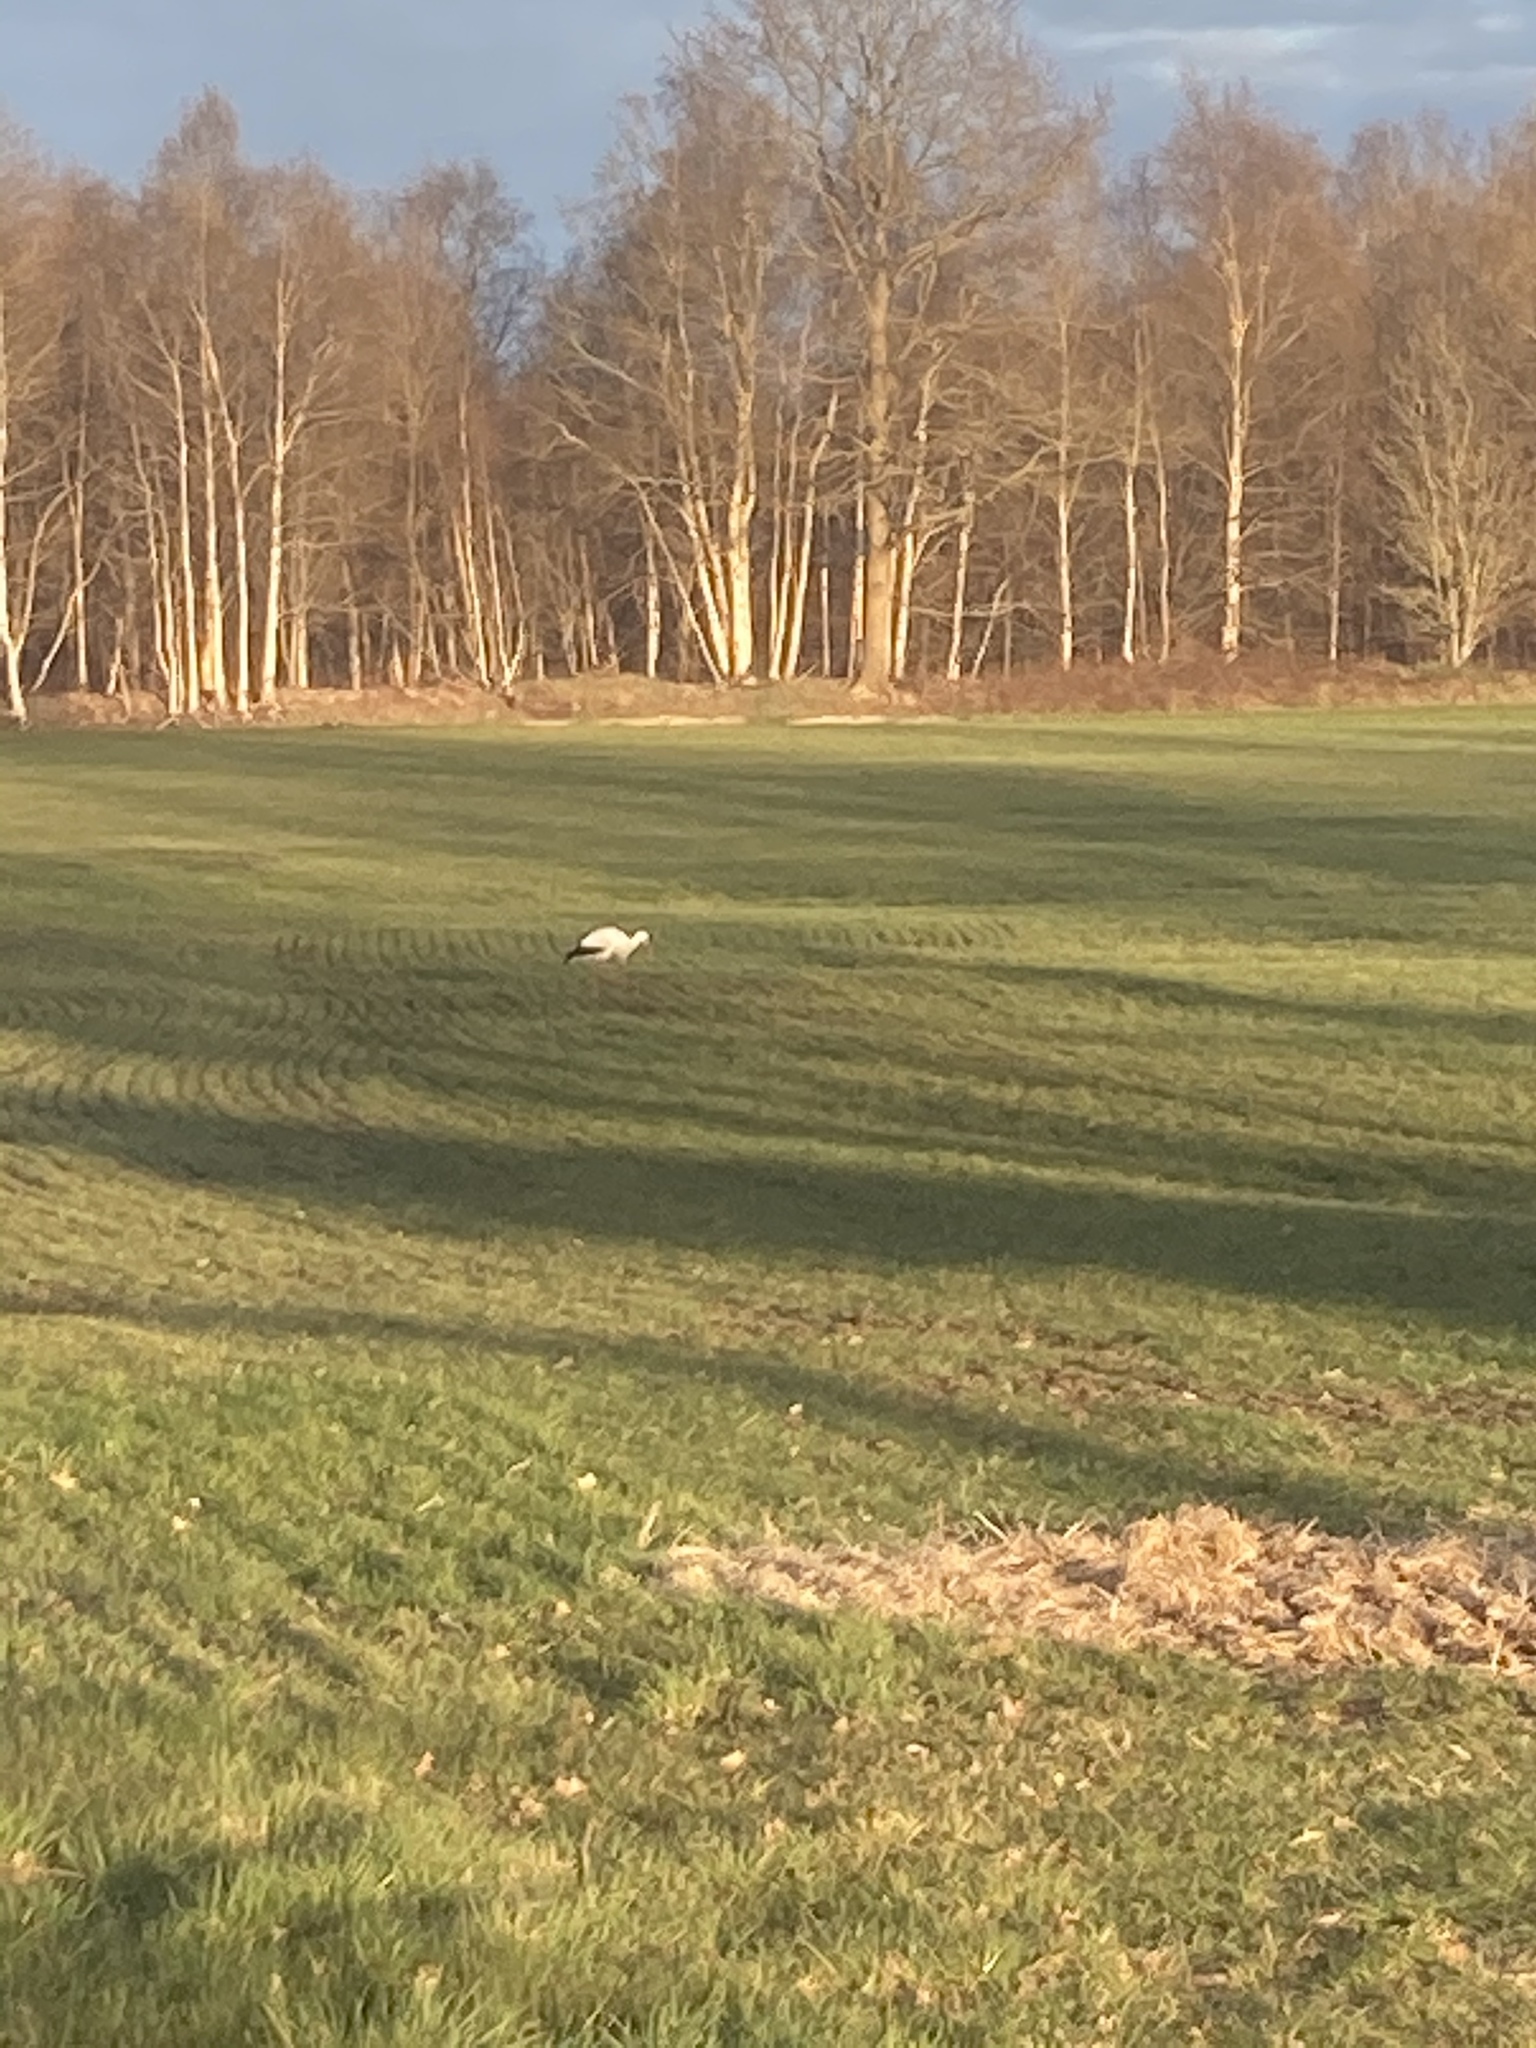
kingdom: Animalia
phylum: Chordata
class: Aves
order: Ciconiiformes
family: Ciconiidae
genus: Ciconia
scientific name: Ciconia ciconia
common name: White stork
